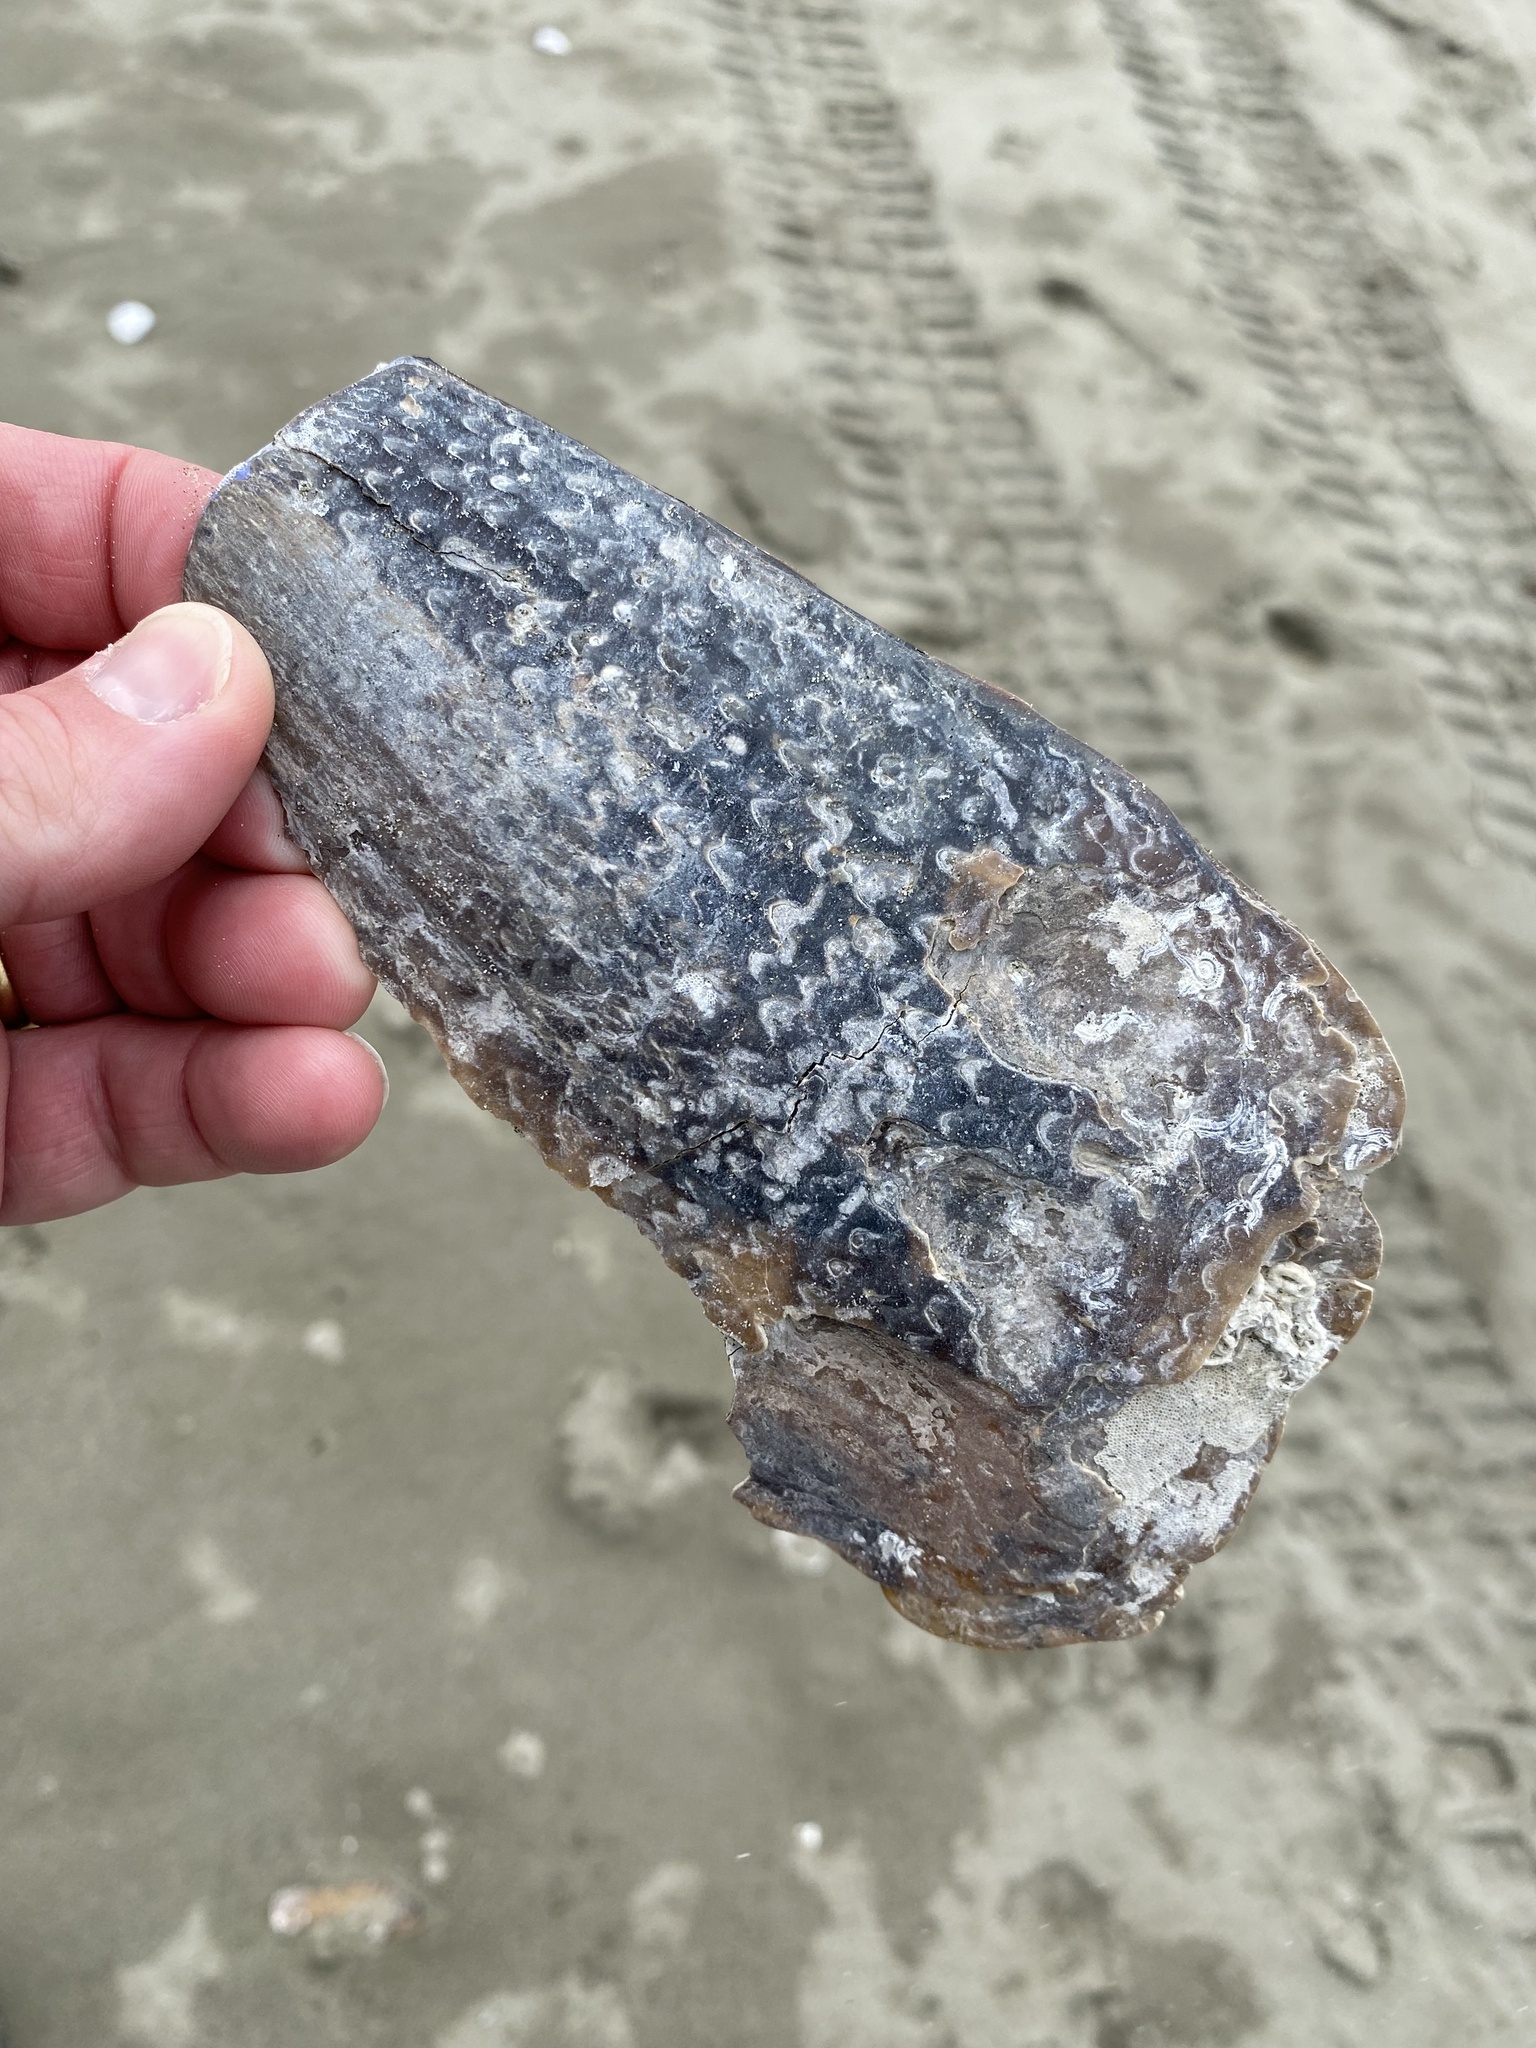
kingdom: Animalia
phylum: Mollusca
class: Bivalvia
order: Ostreida
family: Pinnidae
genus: Atrina
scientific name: Atrina zelandica
